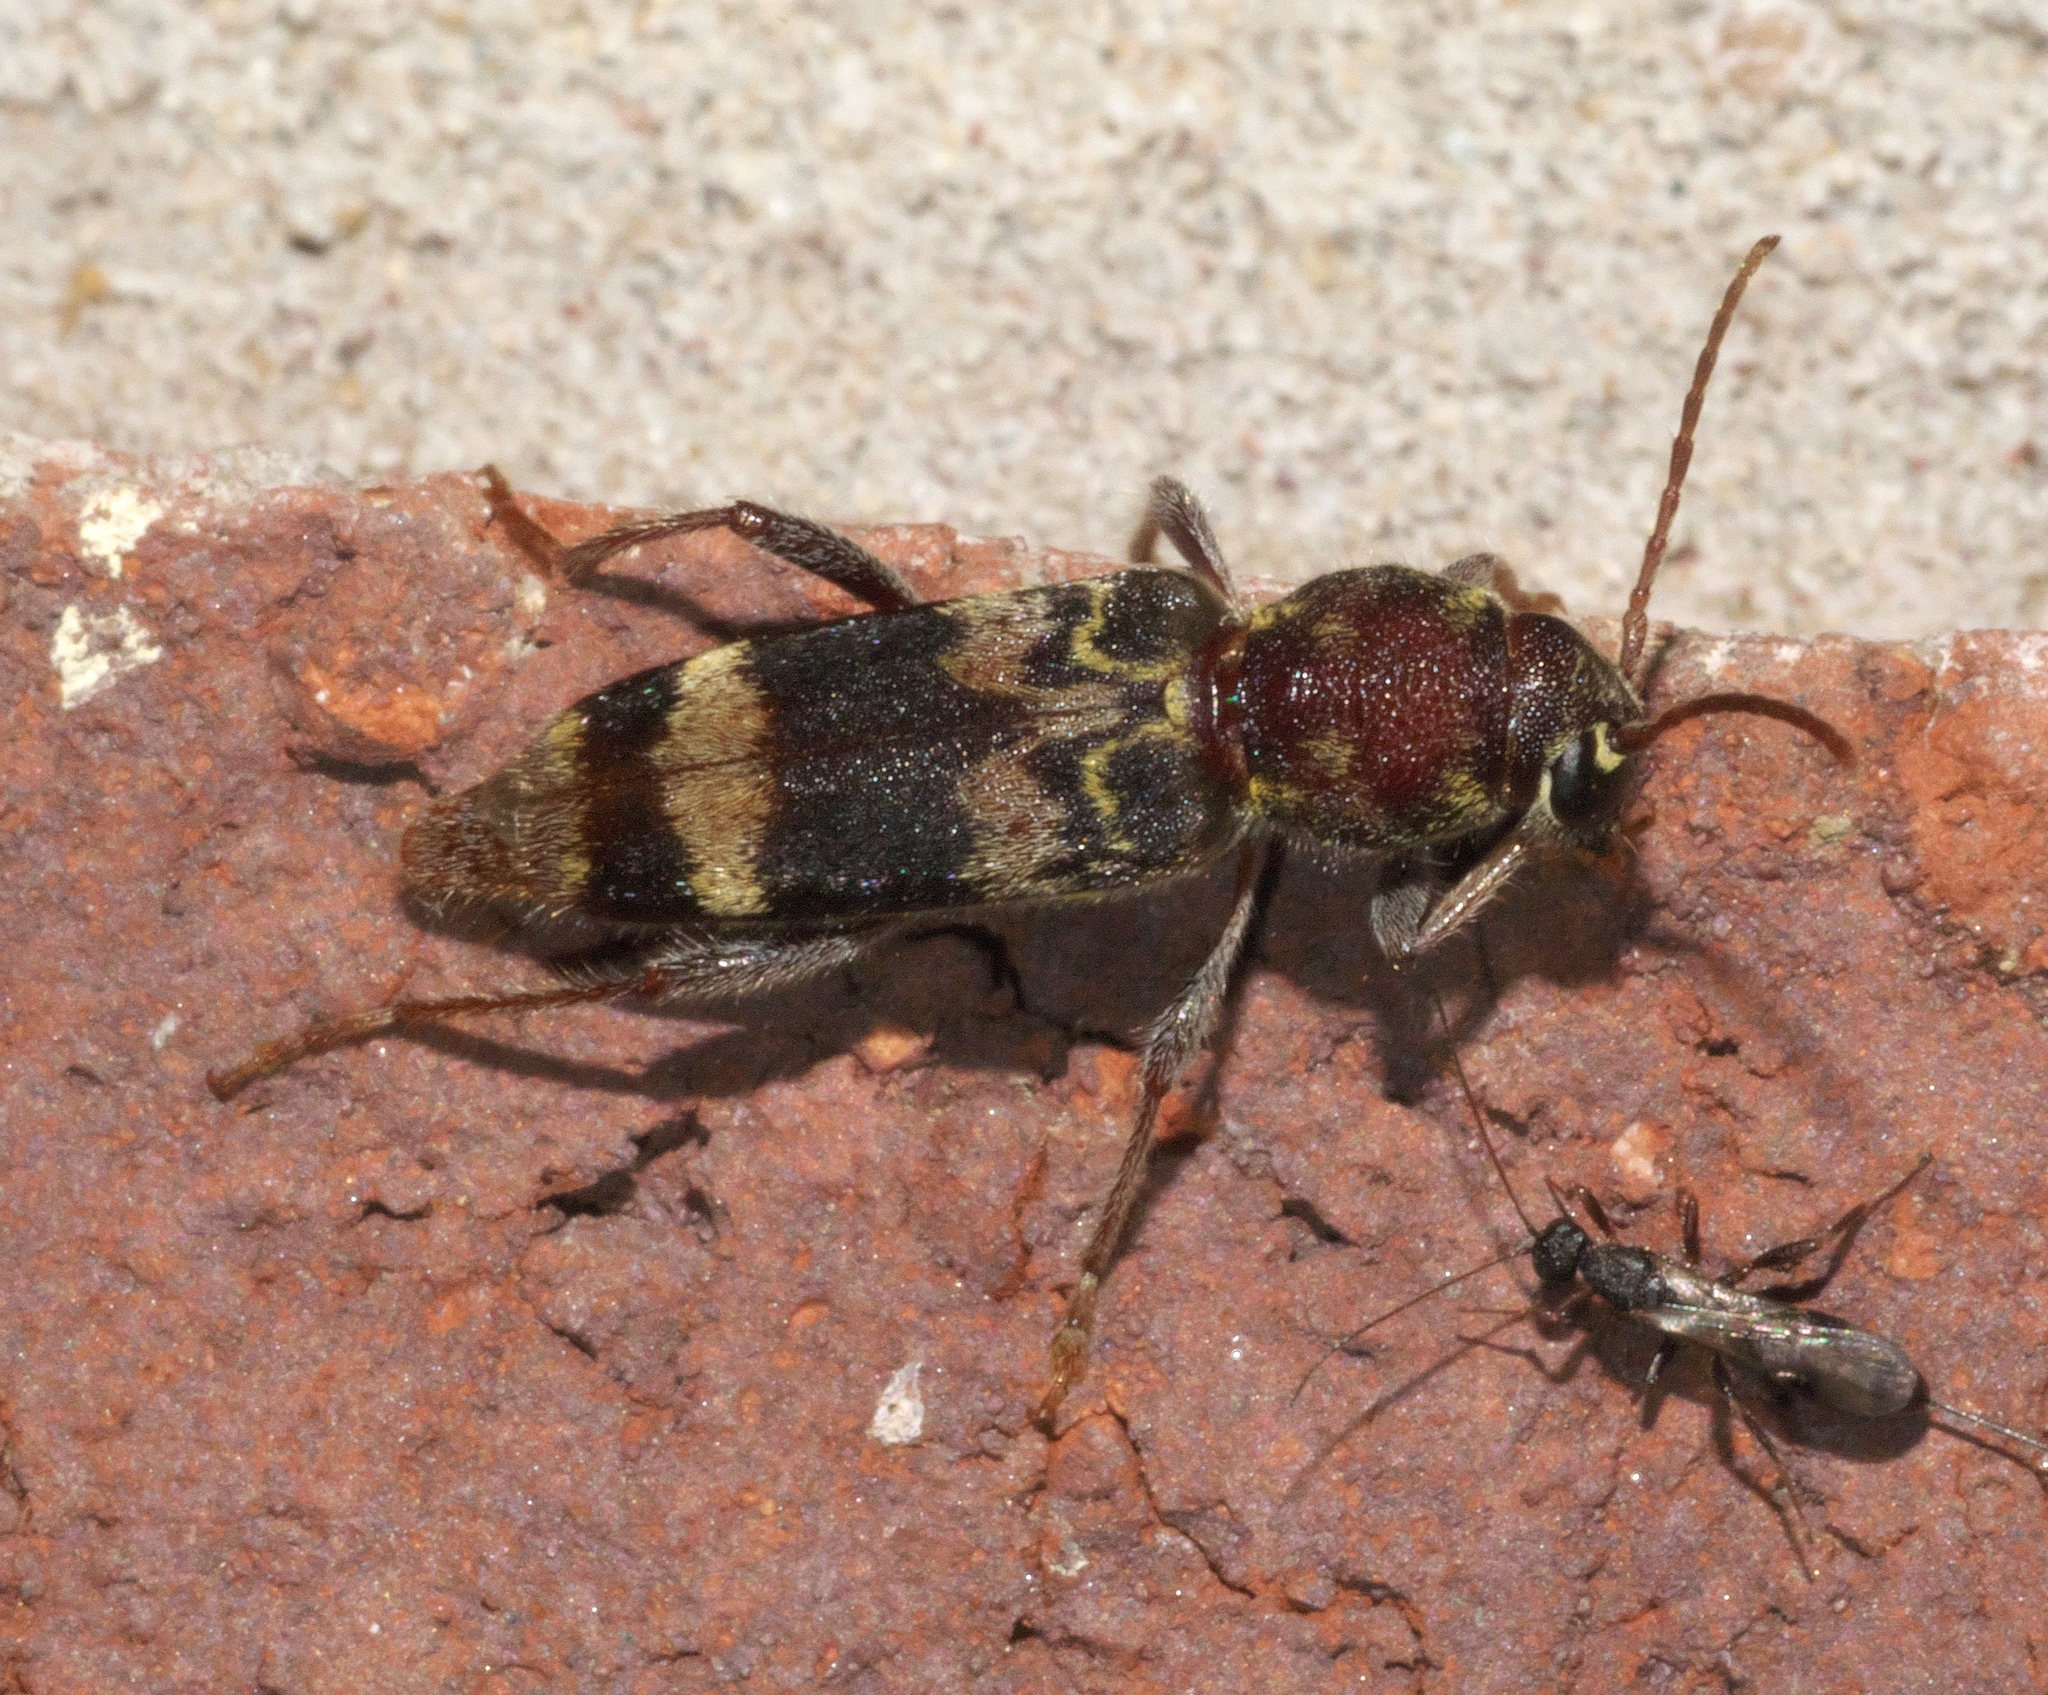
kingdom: Animalia
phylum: Arthropoda
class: Insecta
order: Coleoptera
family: Cerambycidae
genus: Xylotrechus
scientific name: Xylotrechus colonus
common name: Long-horned beetle
